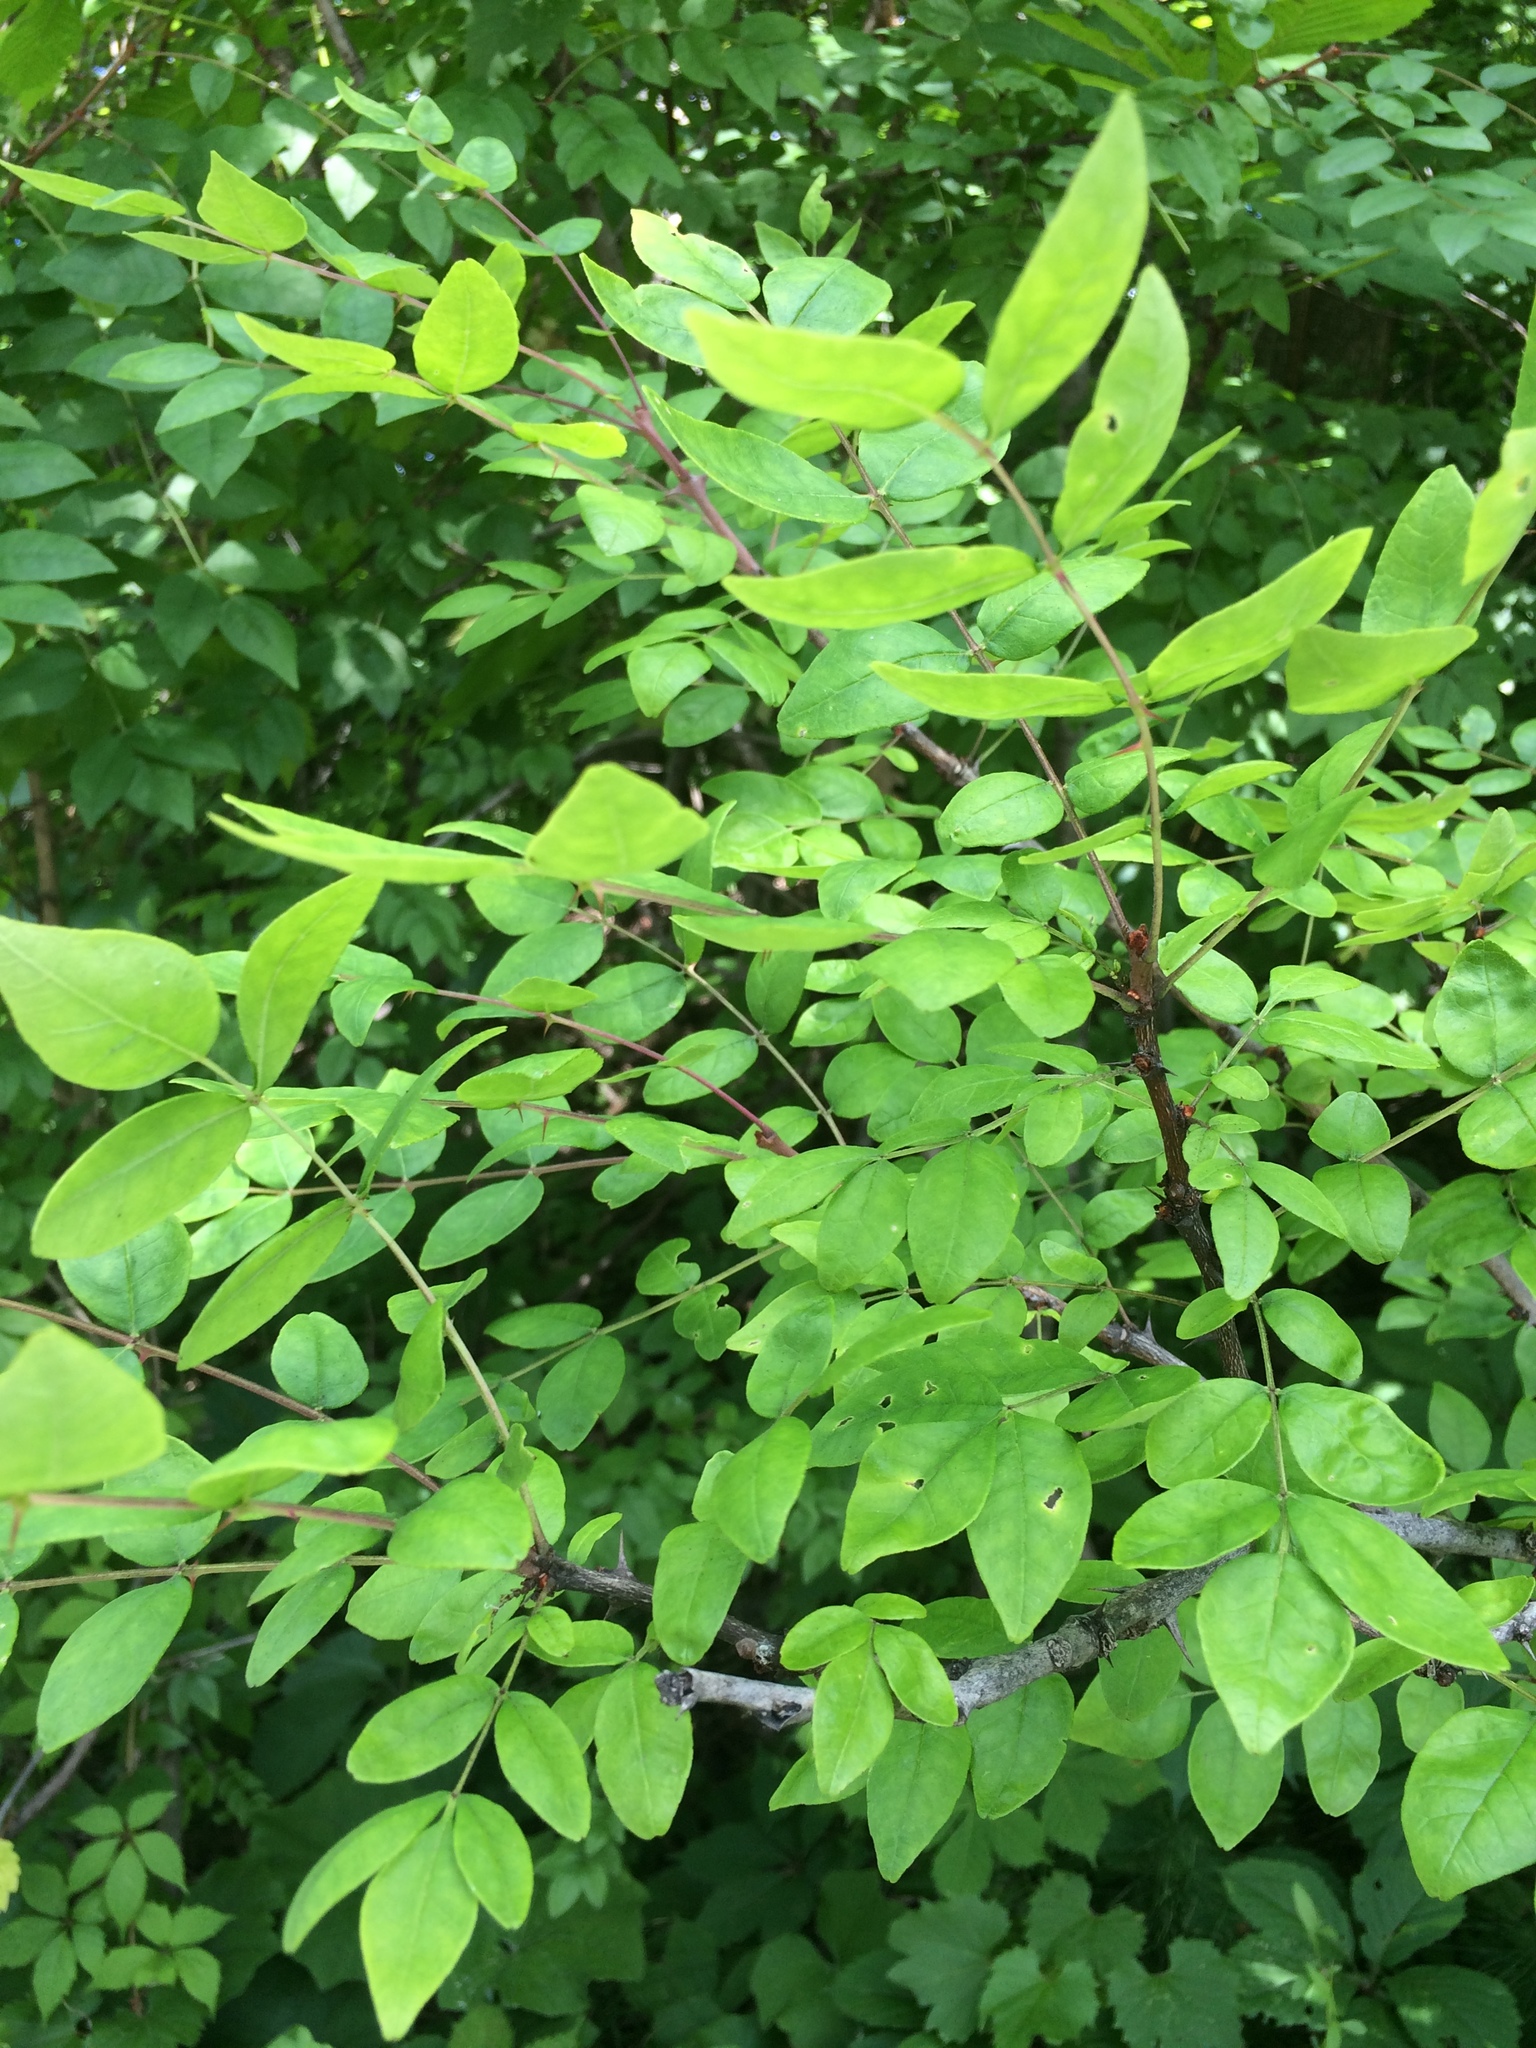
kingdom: Plantae
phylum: Tracheophyta
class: Magnoliopsida
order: Sapindales
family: Rutaceae
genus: Zanthoxylum
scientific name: Zanthoxylum americanum
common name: Northern prickly-ash
